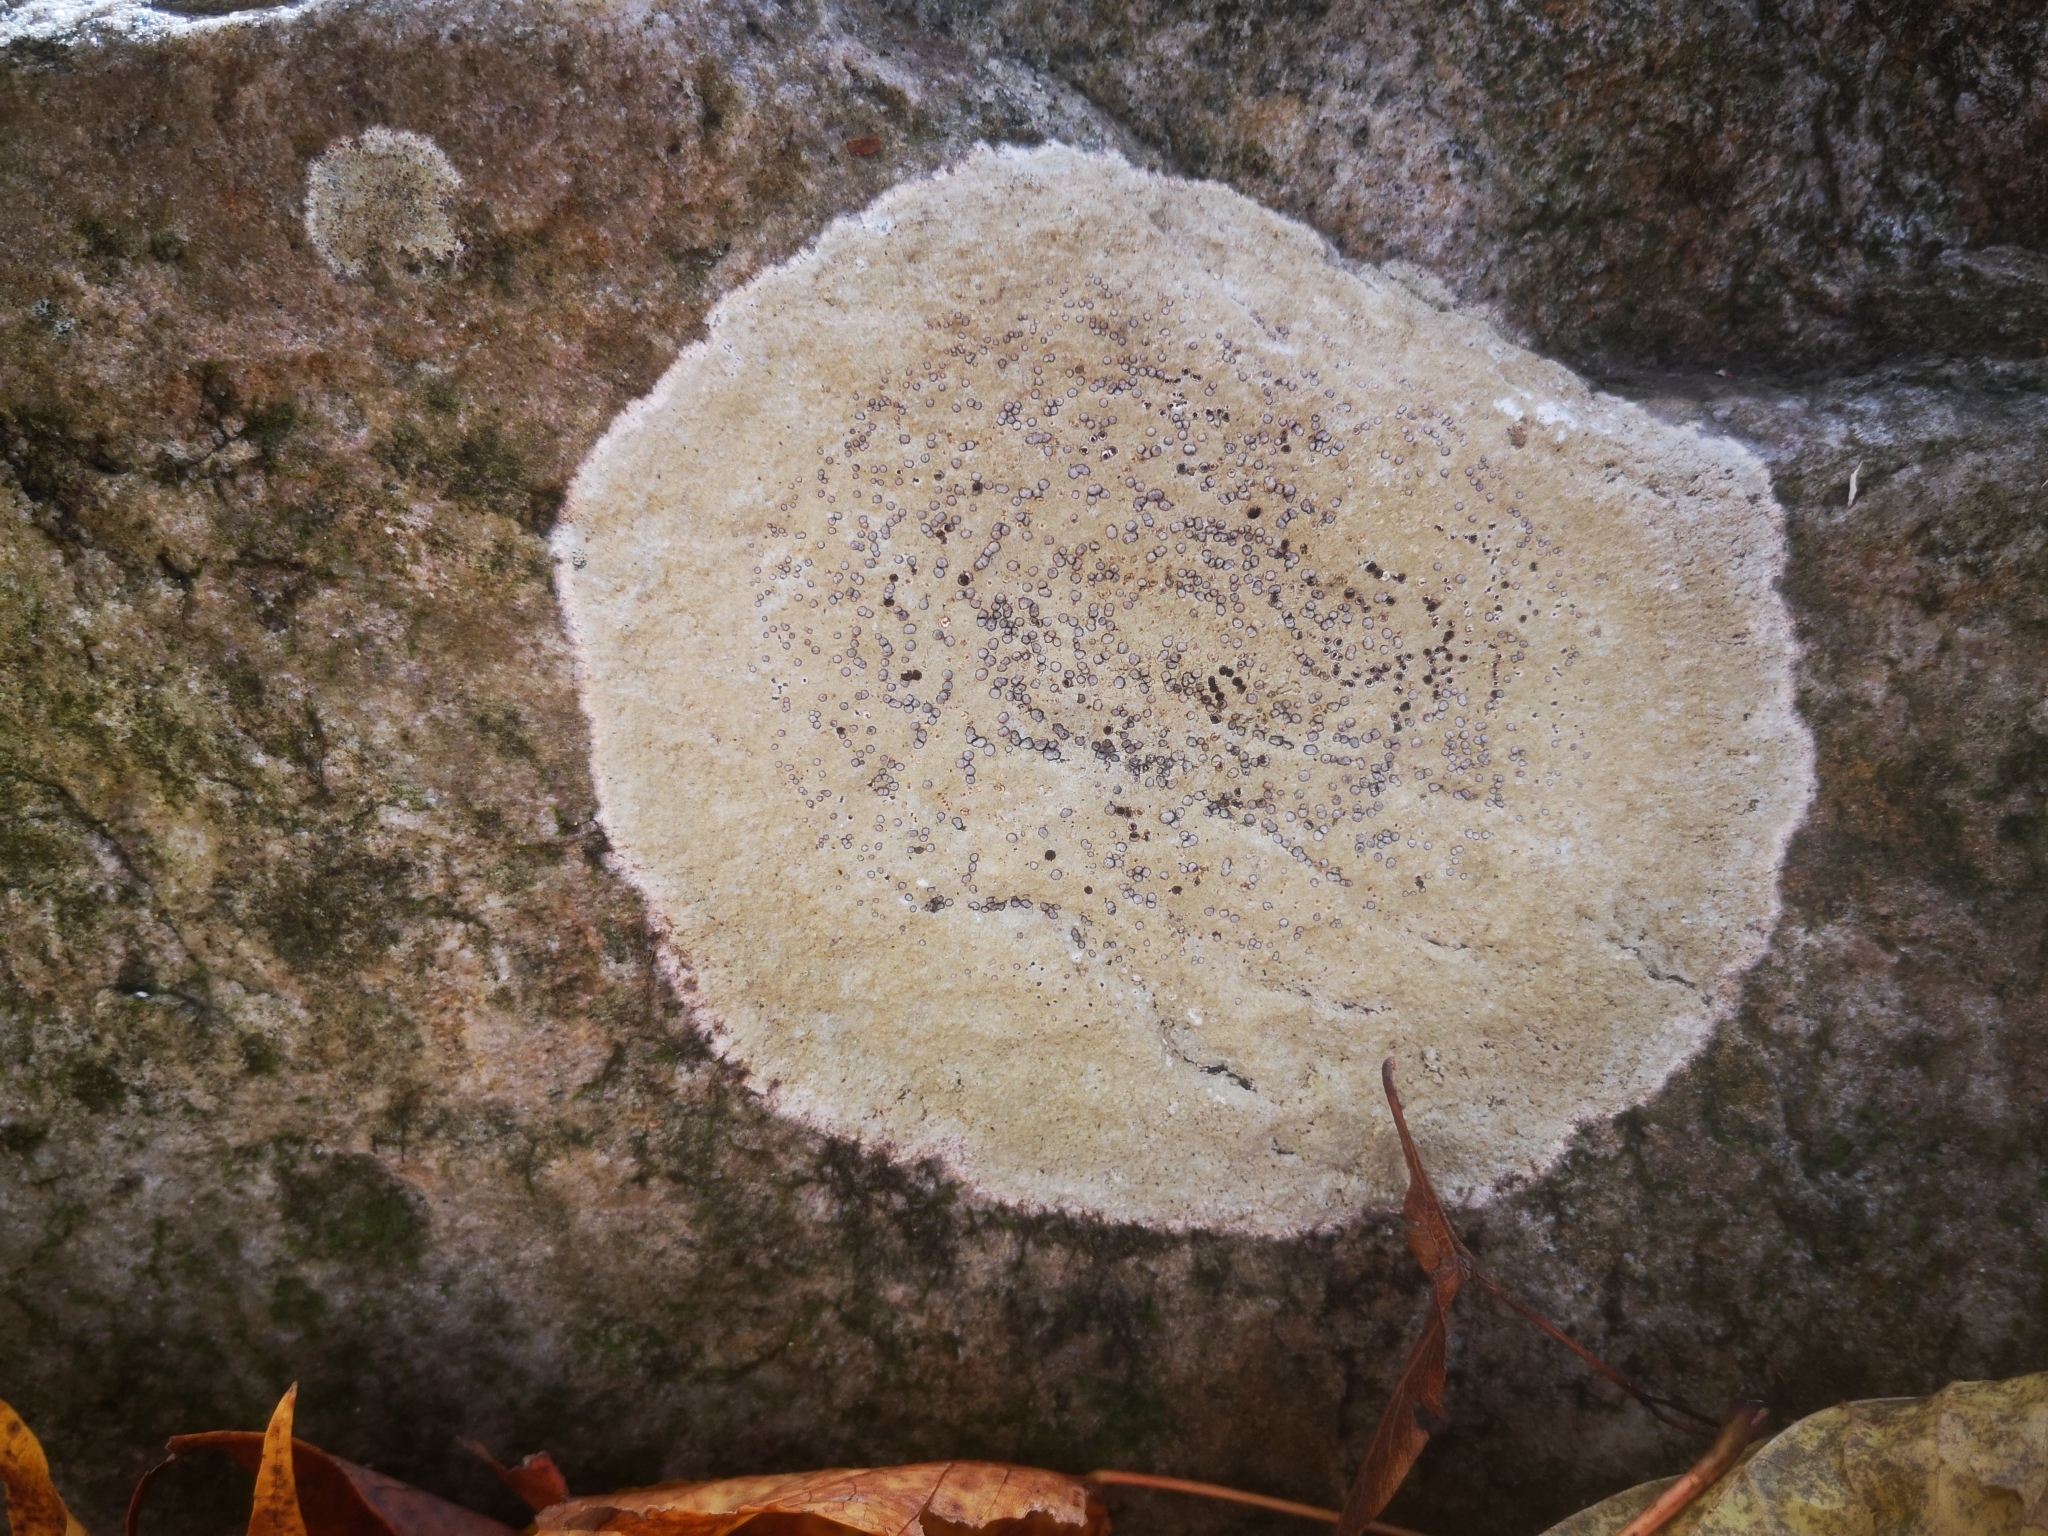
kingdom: Fungi
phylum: Ascomycota
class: Lecanoromycetes
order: Lecideales
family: Lecideaceae
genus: Porpidia
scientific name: Porpidia albocaerulescens
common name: Smokey-eyed boulder lichen
